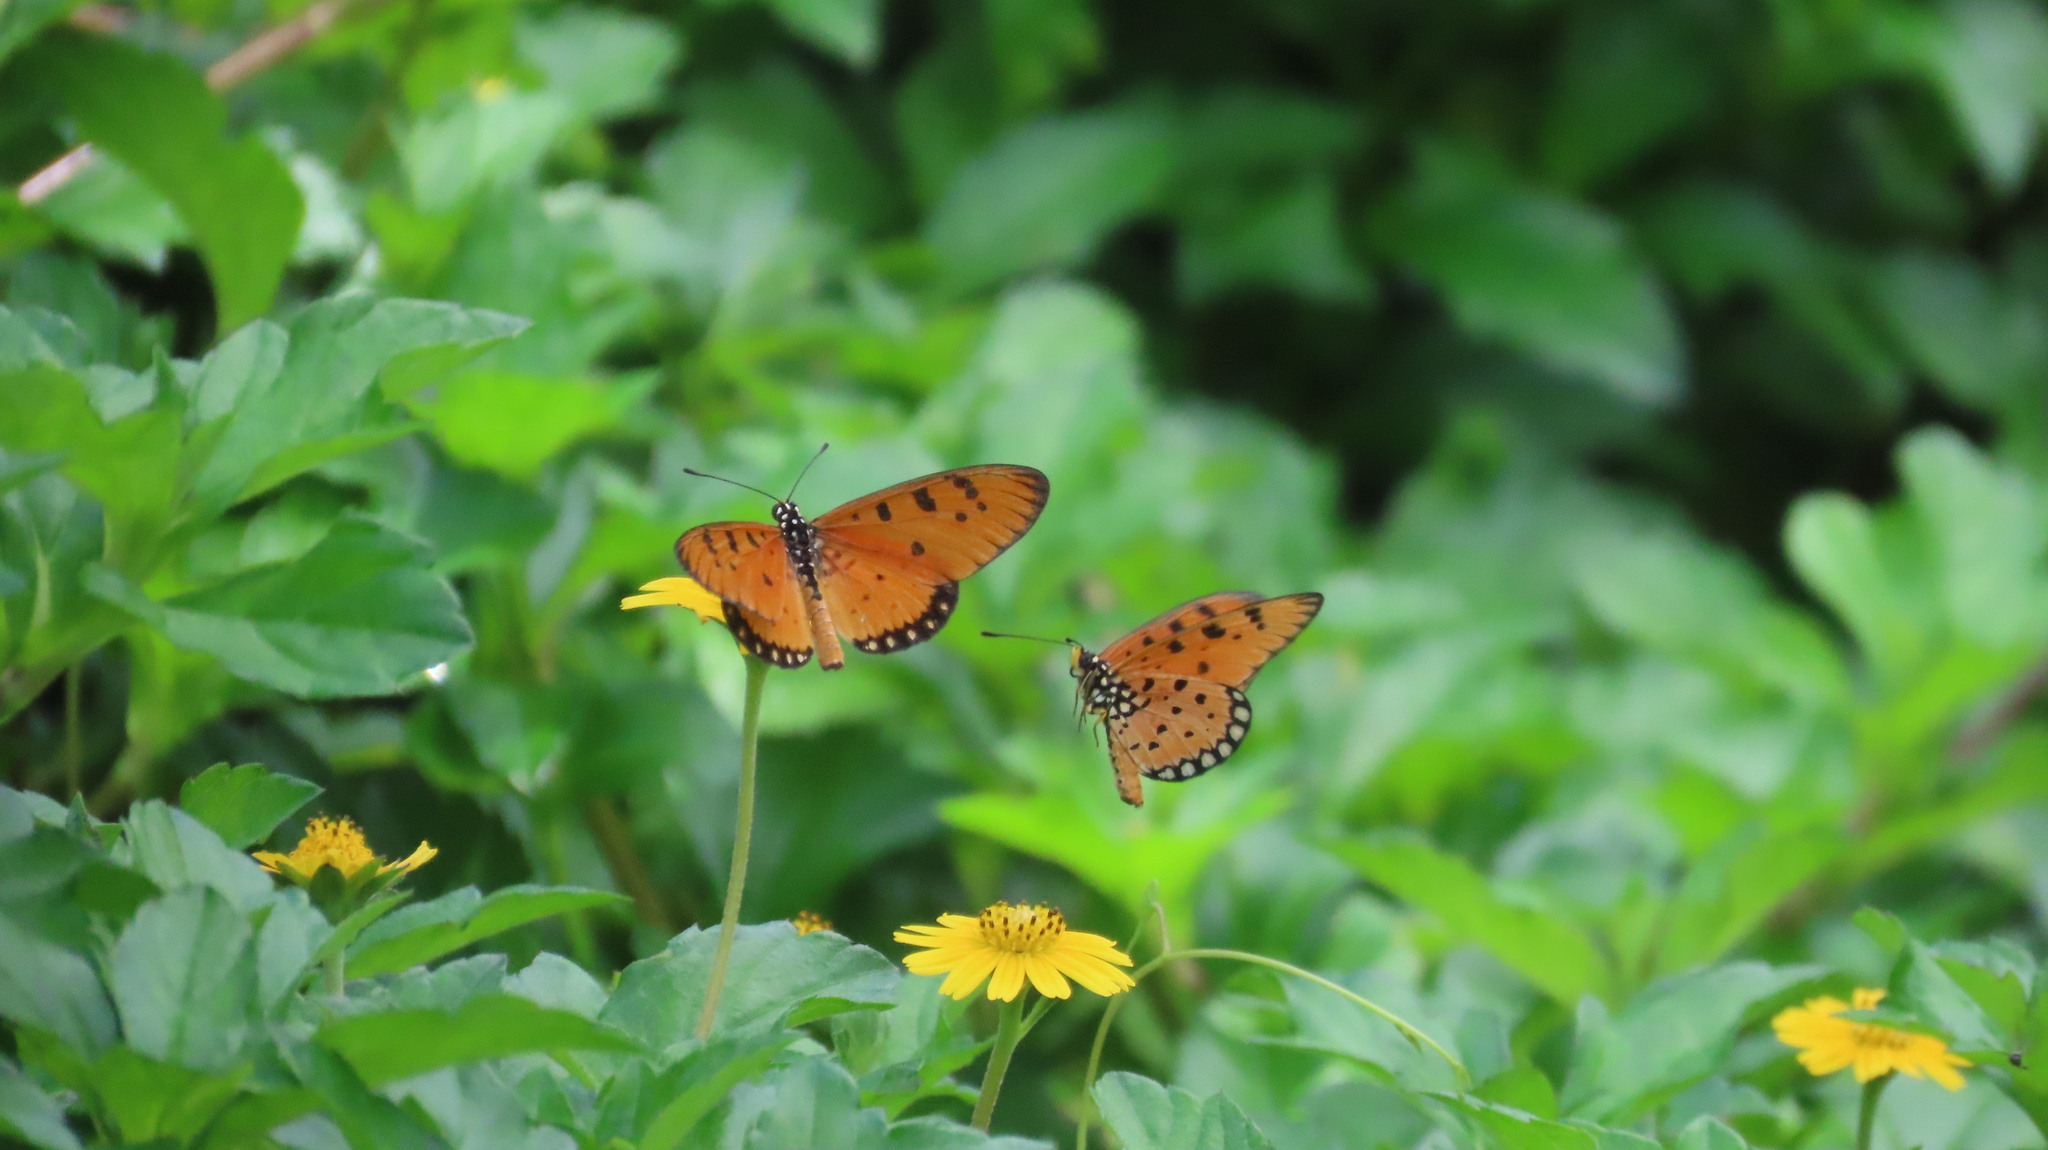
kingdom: Animalia
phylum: Arthropoda
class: Insecta
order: Lepidoptera
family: Nymphalidae
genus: Acraea
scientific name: Acraea terpsicore
